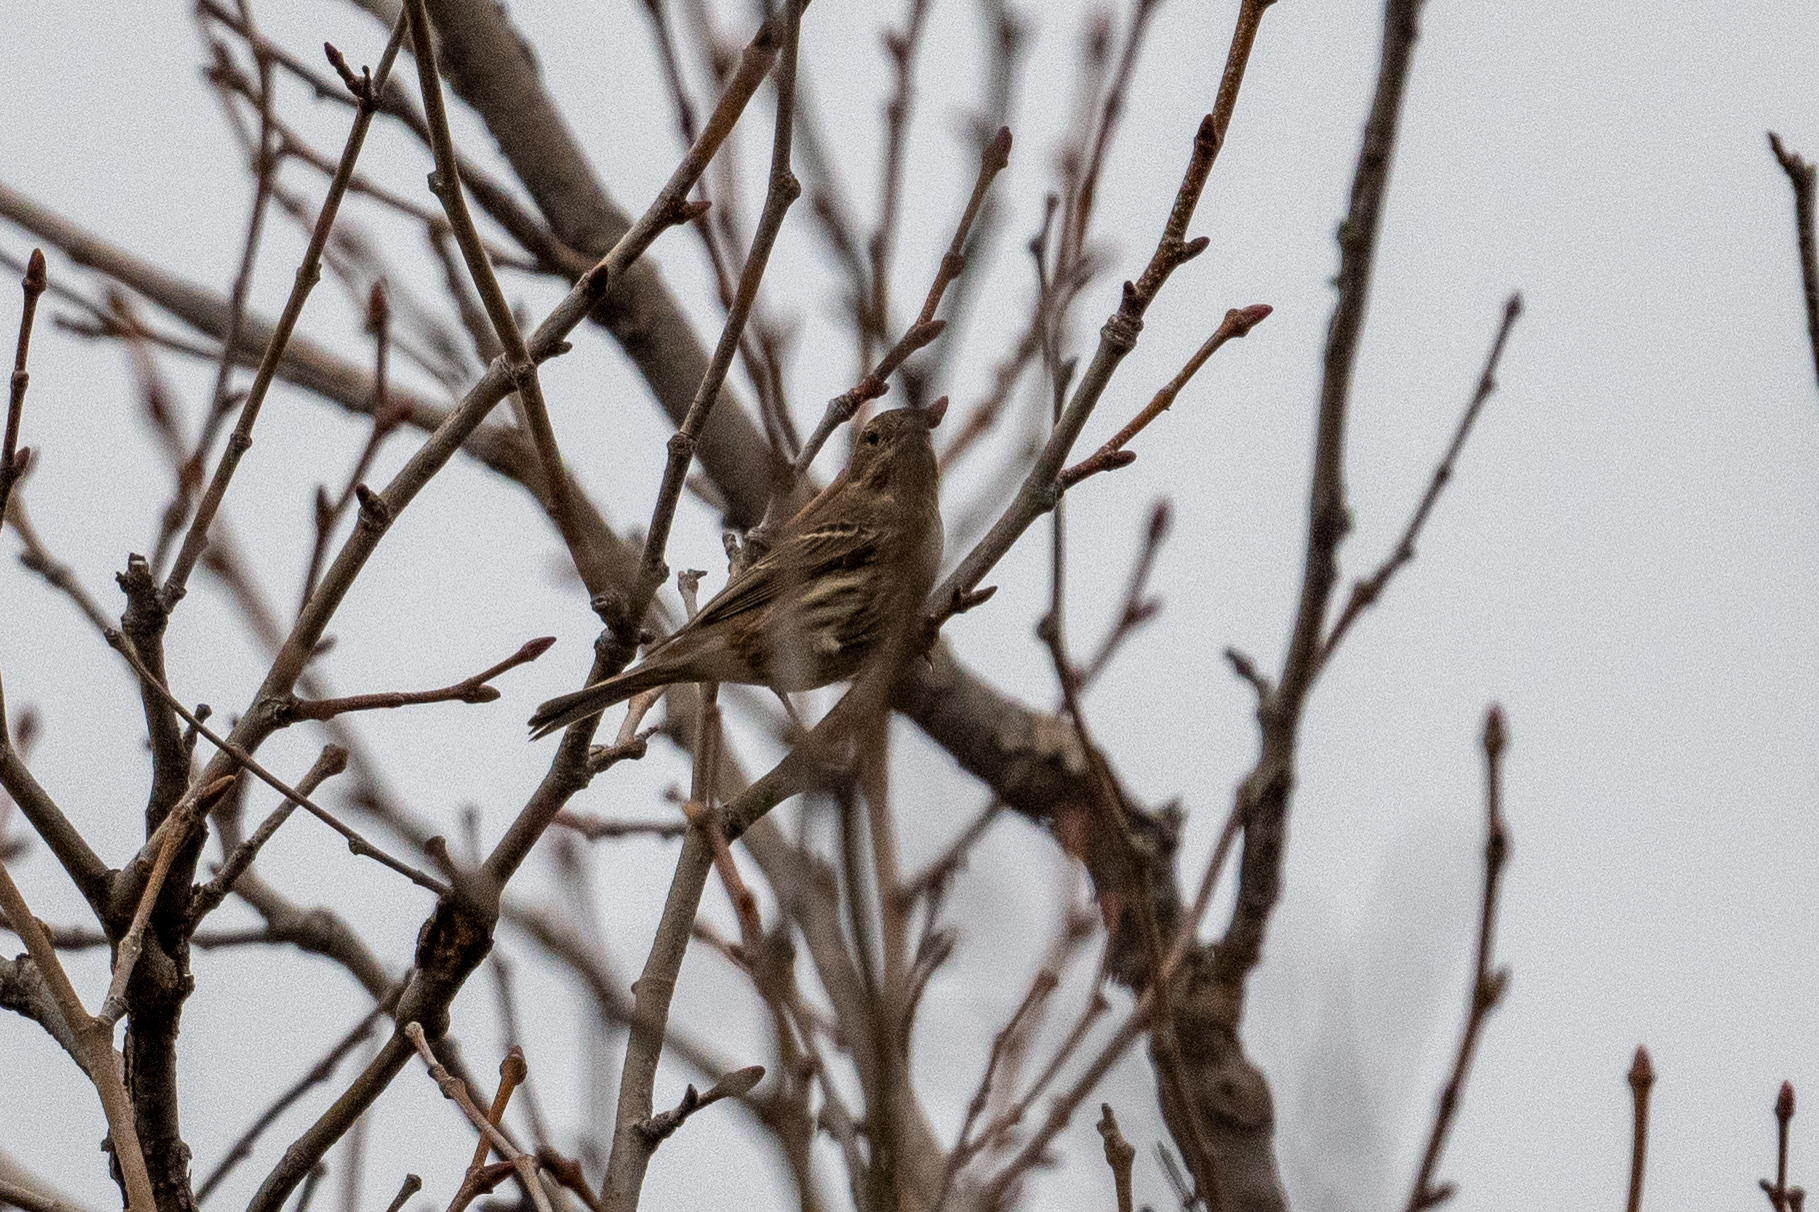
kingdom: Animalia
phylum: Chordata
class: Aves
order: Passeriformes
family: Parulidae
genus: Setophaga
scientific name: Setophaga coronata
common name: Myrtle warbler
